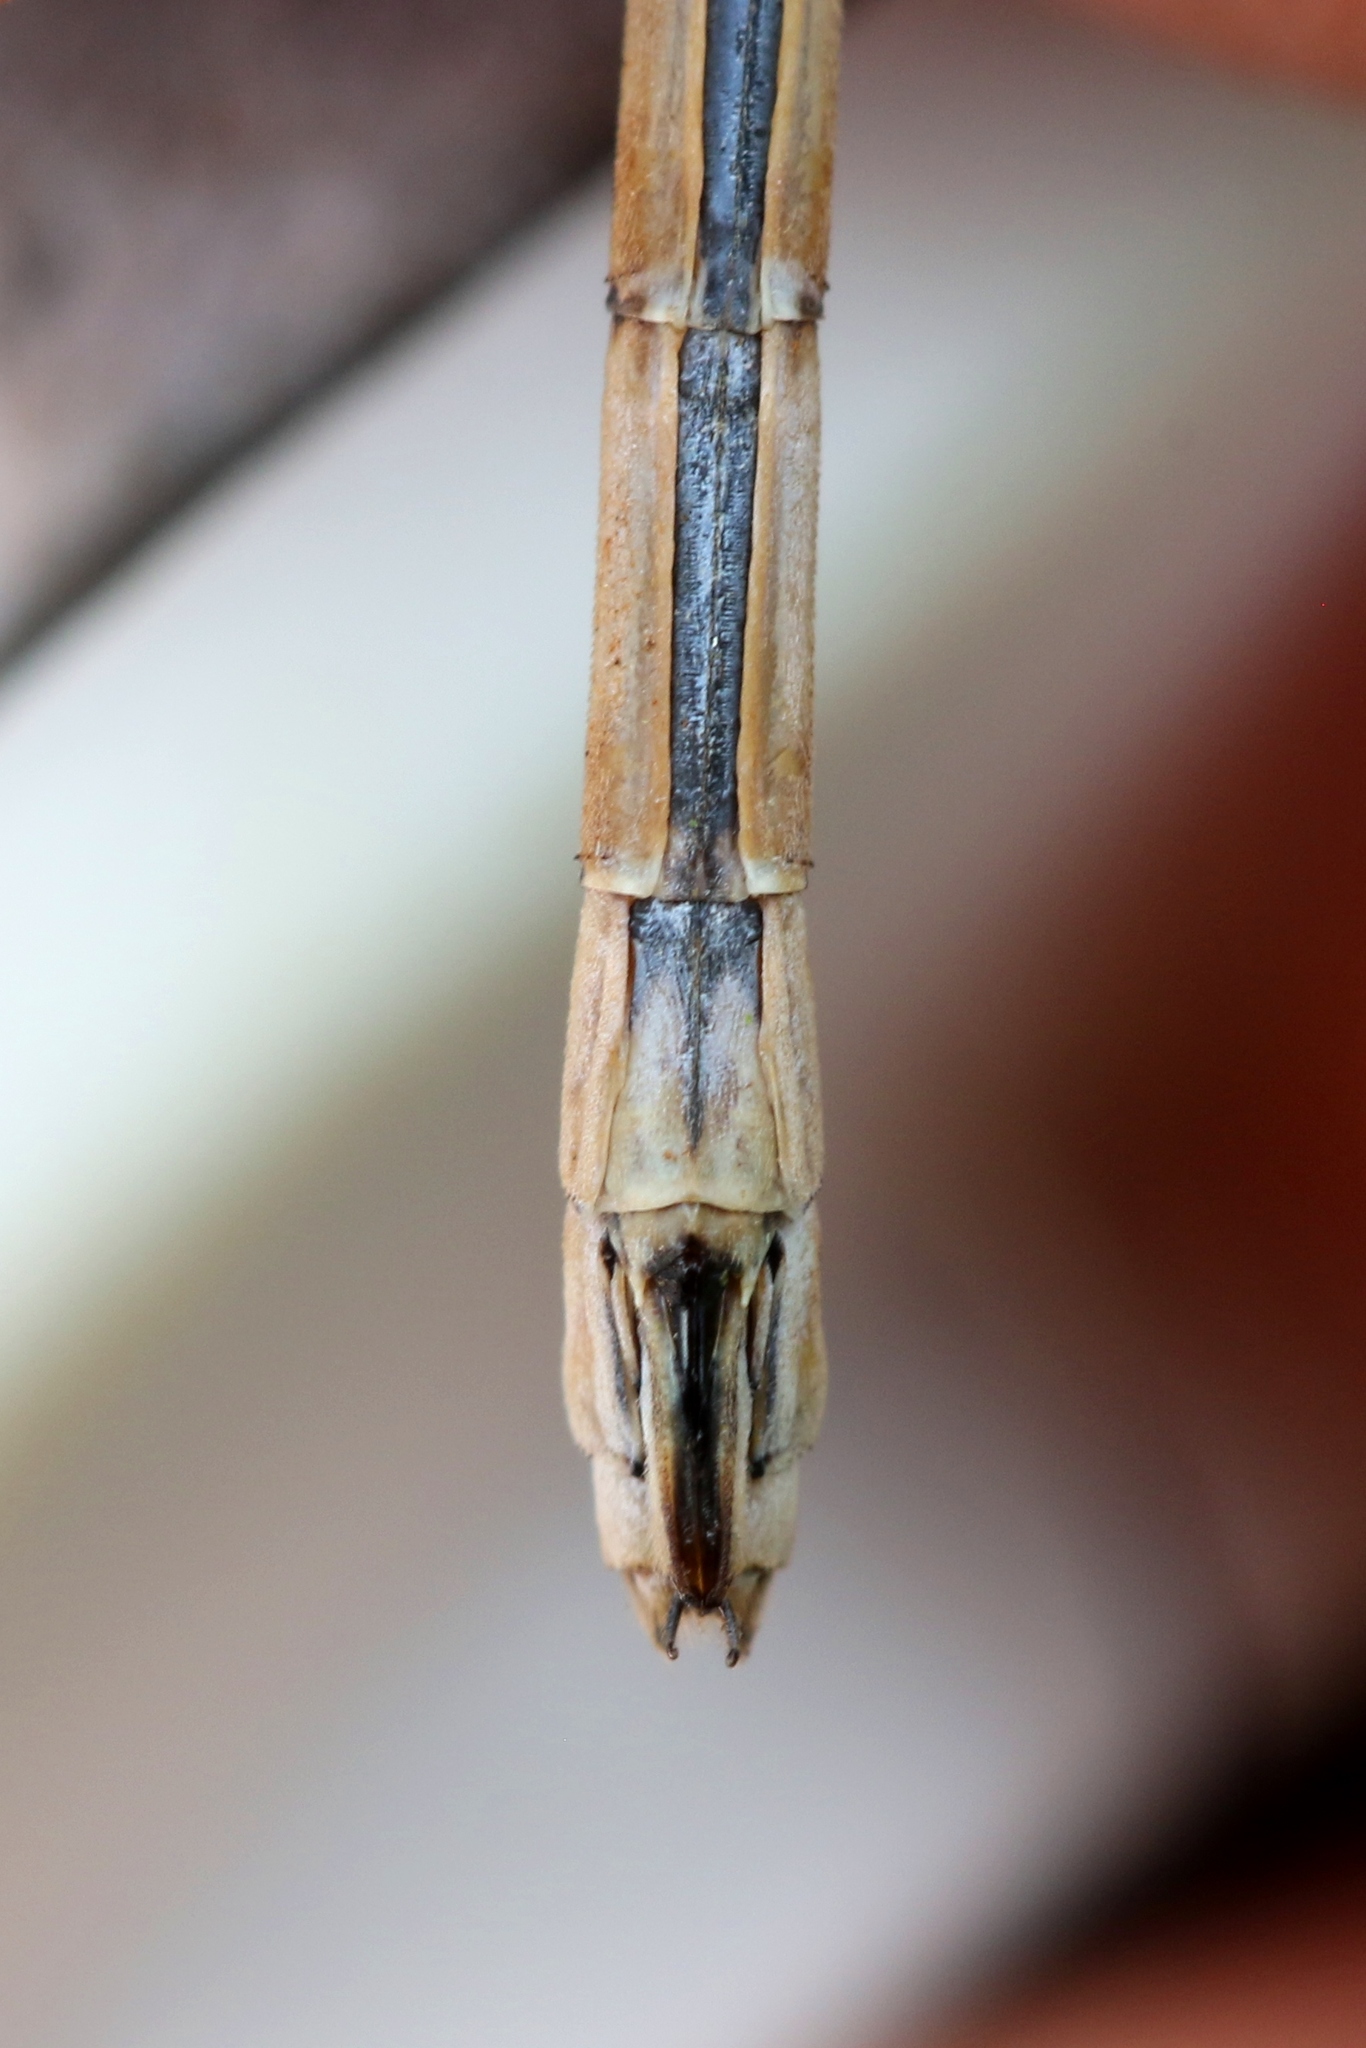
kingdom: Animalia
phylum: Arthropoda
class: Insecta
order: Odonata
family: Lestidae
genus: Lestes
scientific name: Lestes disjunctus
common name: Northern spreadwing
